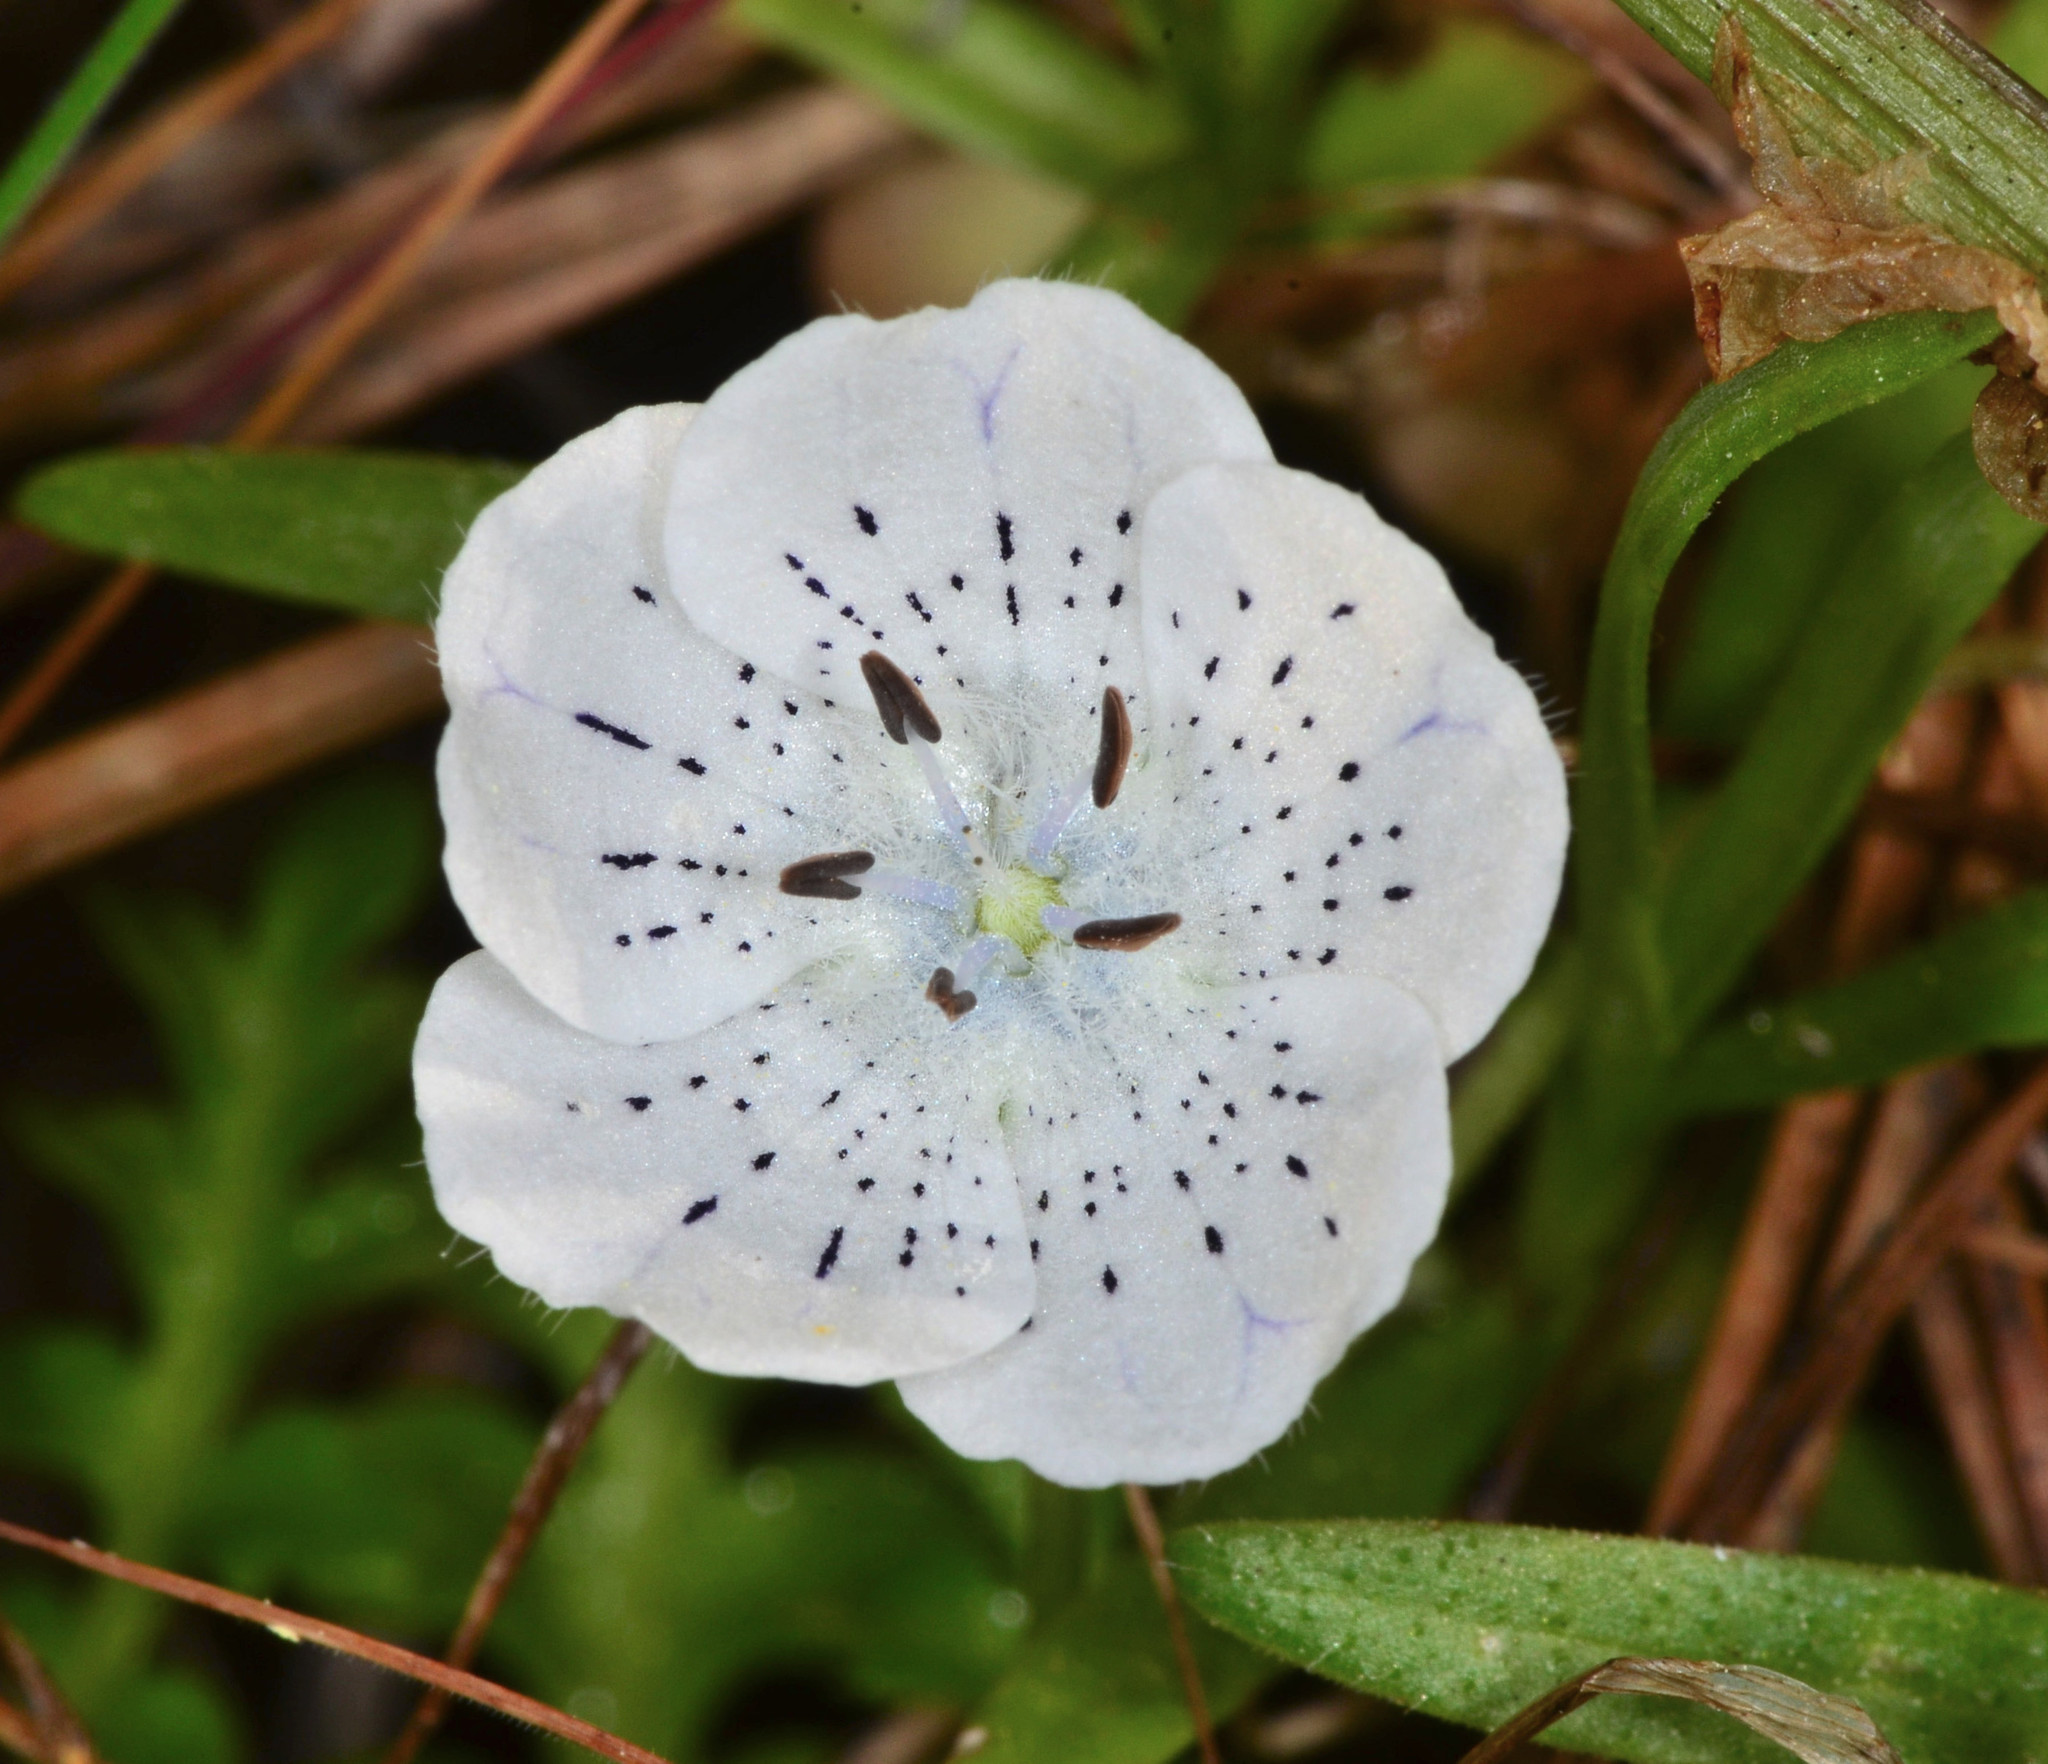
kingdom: Plantae
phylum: Tracheophyta
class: Magnoliopsida
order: Boraginales
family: Hydrophyllaceae
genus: Nemophila
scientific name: Nemophila menziesii
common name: Baby's-blue-eyes
